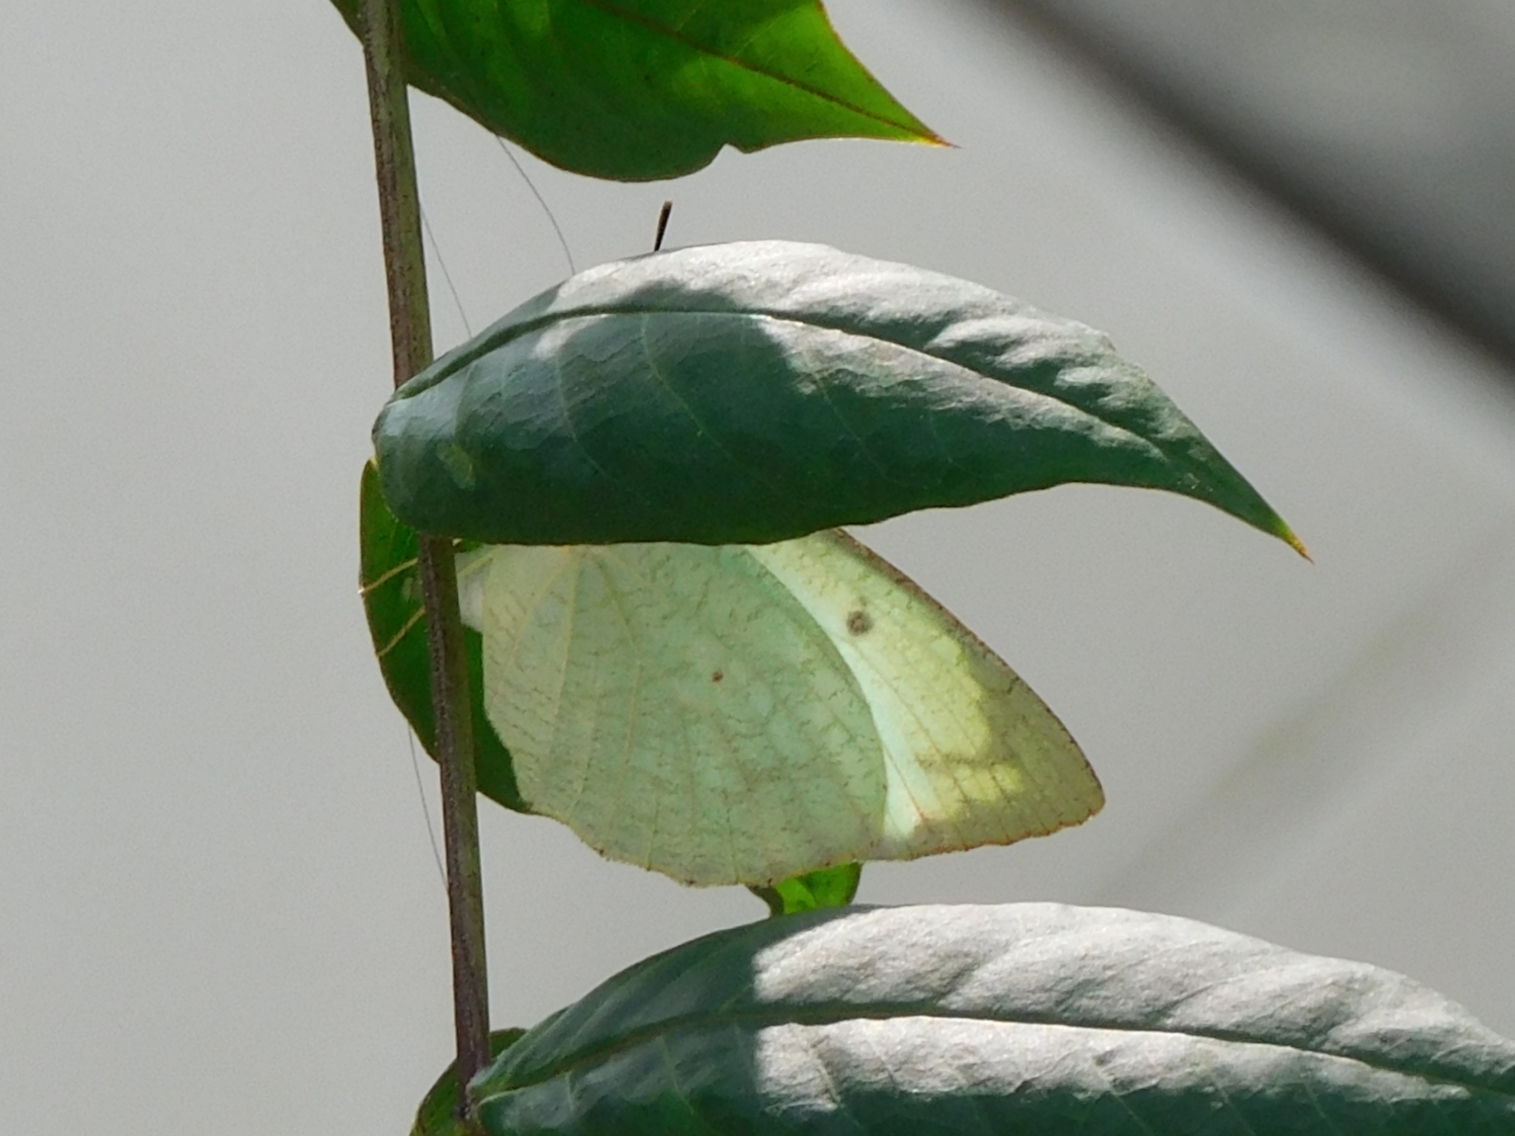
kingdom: Animalia
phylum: Arthropoda
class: Insecta
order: Lepidoptera
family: Pieridae
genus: Catopsilia
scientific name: Catopsilia pyranthe
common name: Mottled emigrant
